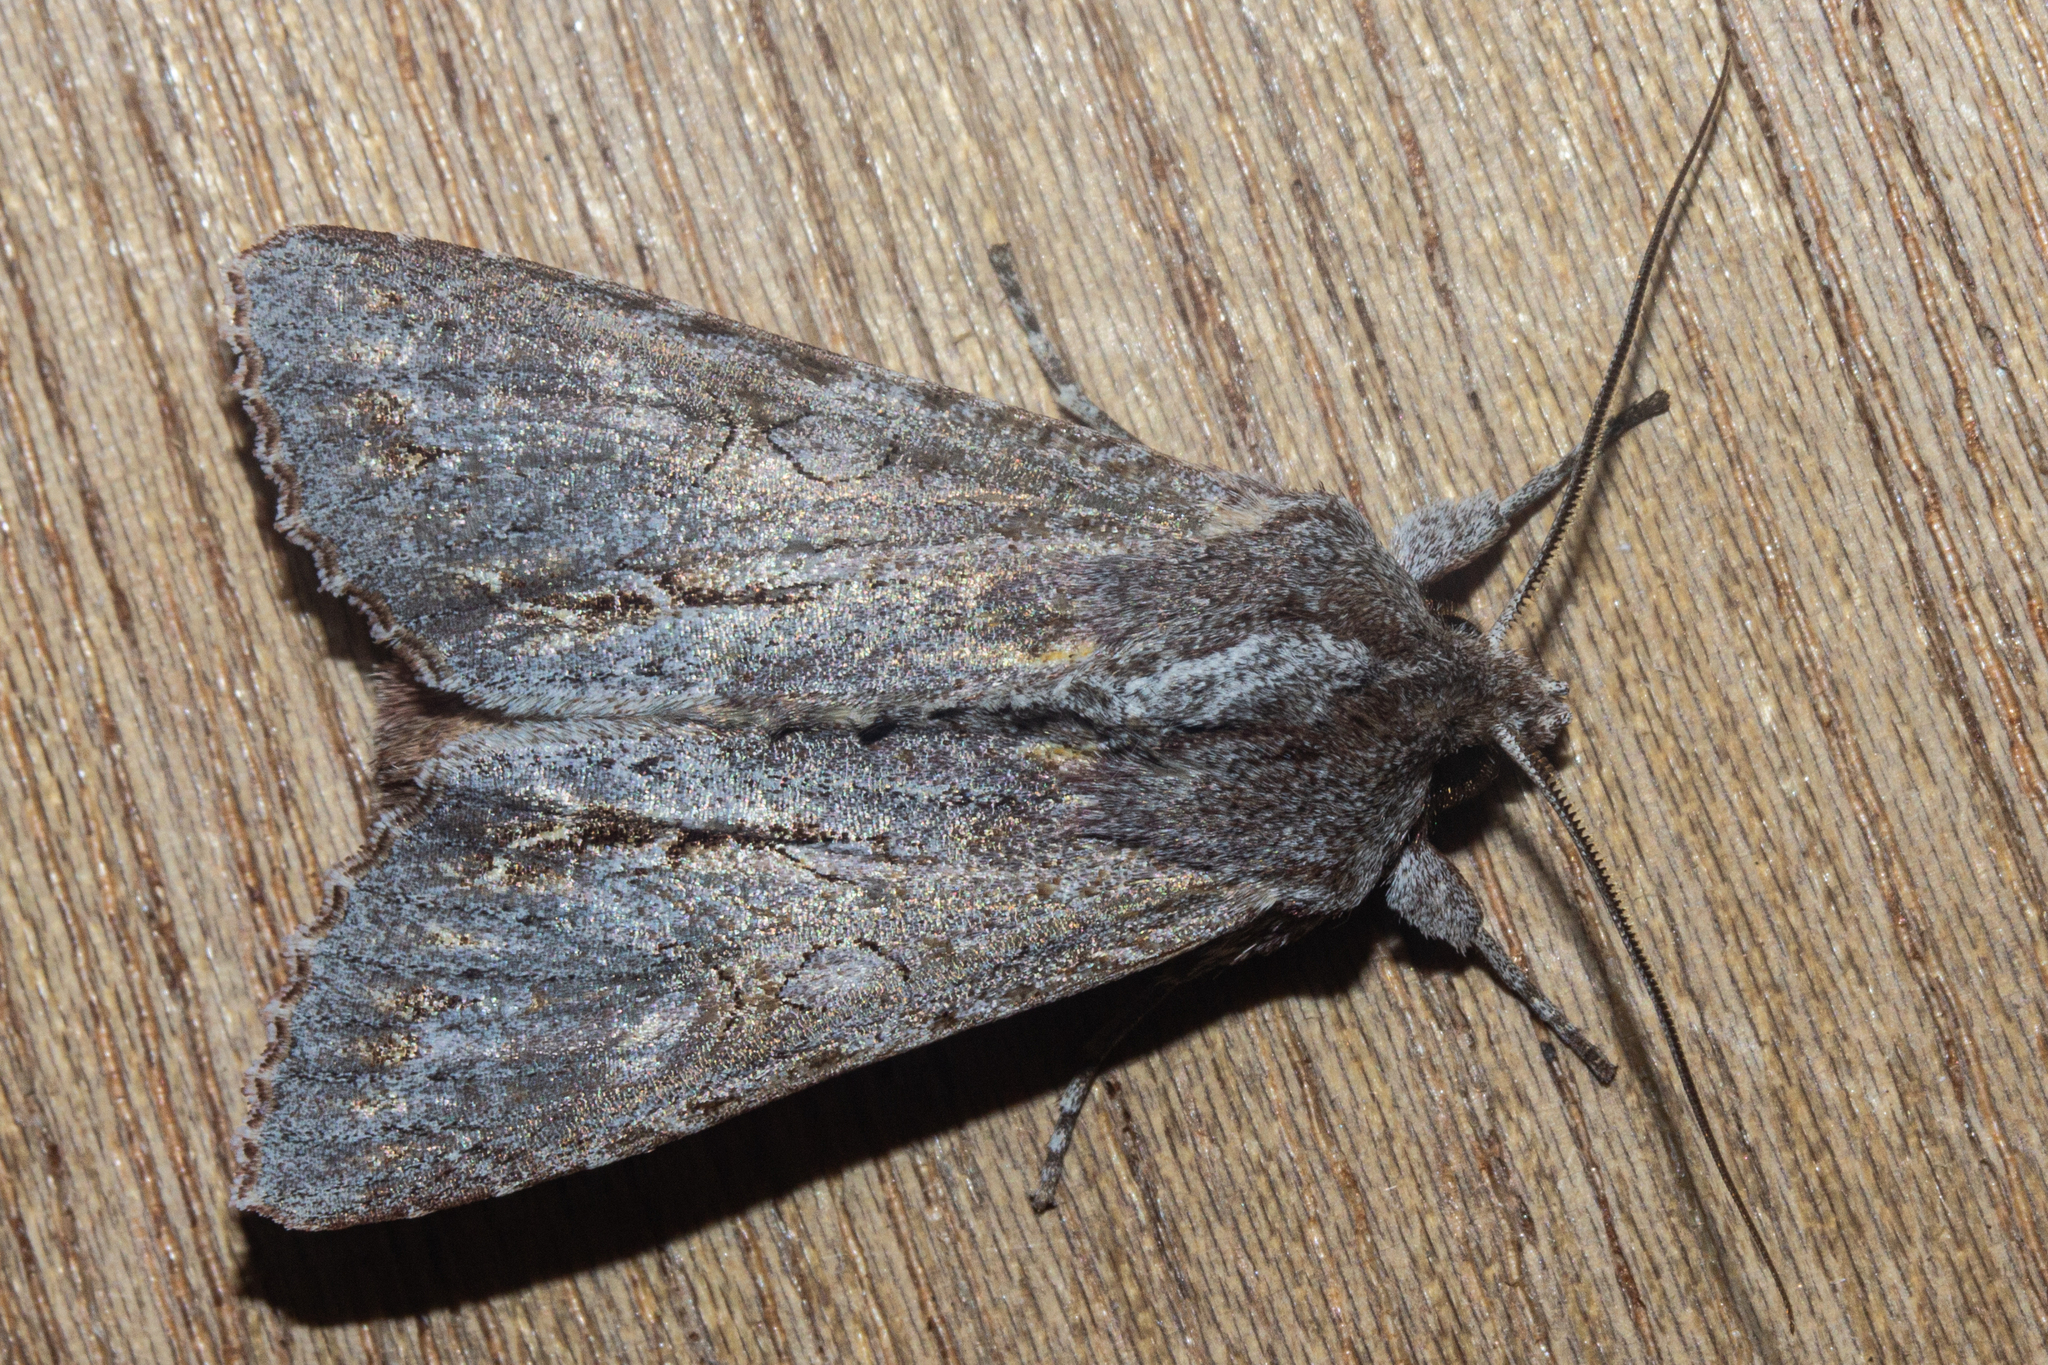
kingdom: Animalia
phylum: Arthropoda
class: Insecta
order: Lepidoptera
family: Noctuidae
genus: Ichneutica
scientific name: Ichneutica
